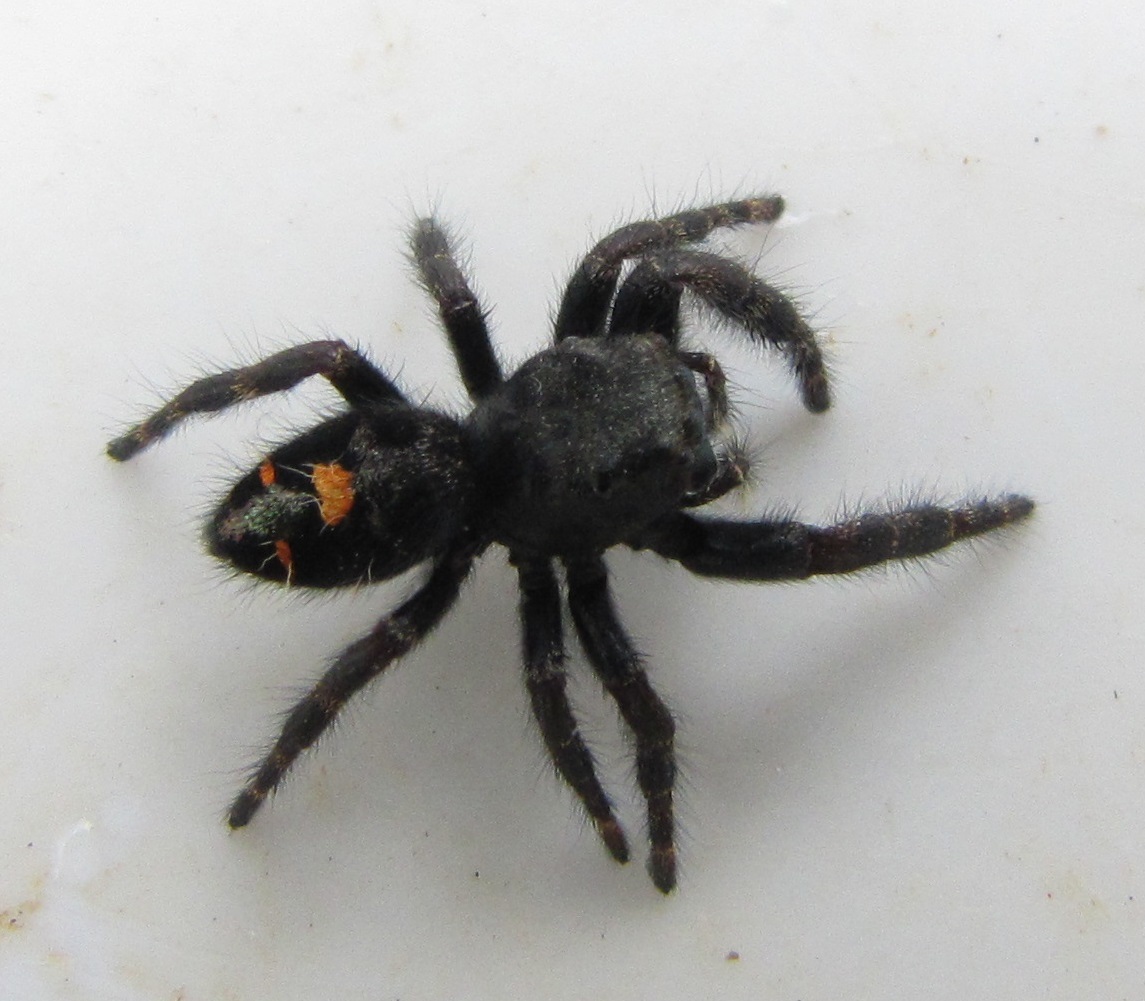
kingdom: Animalia
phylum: Arthropoda
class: Arachnida
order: Araneae
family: Salticidae
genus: Phidippus
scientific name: Phidippus audax
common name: Bold jumper
